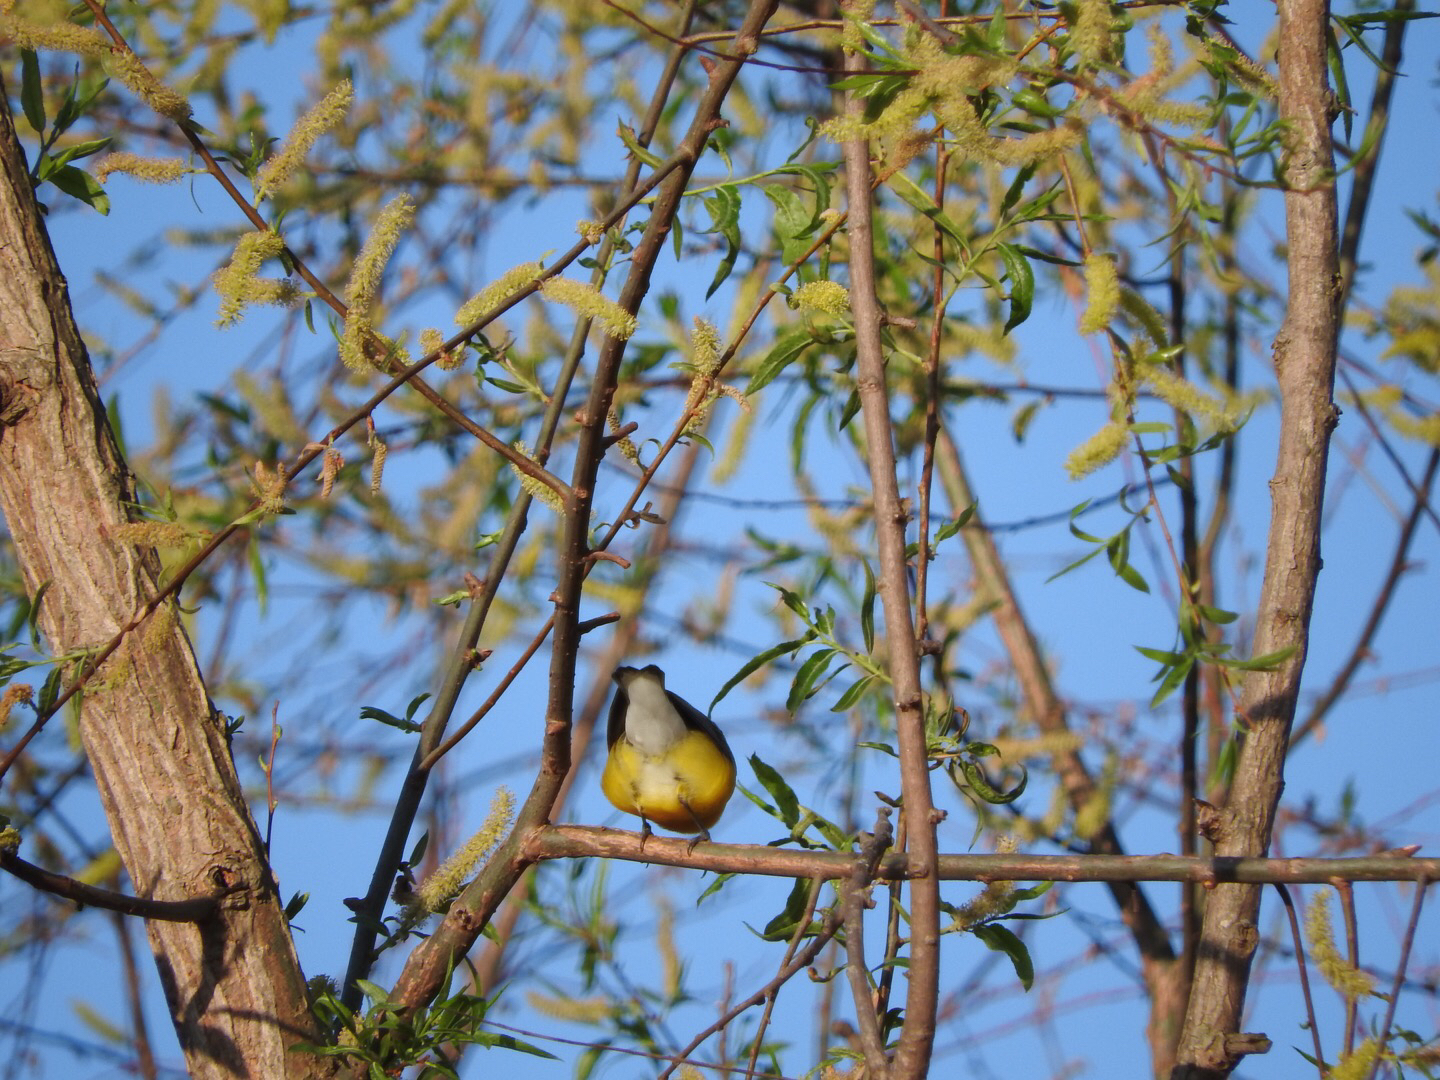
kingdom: Animalia
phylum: Chordata
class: Aves
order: Passeriformes
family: Parulidae
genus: Protonotaria
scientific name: Protonotaria citrea
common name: Prothonotary warbler
